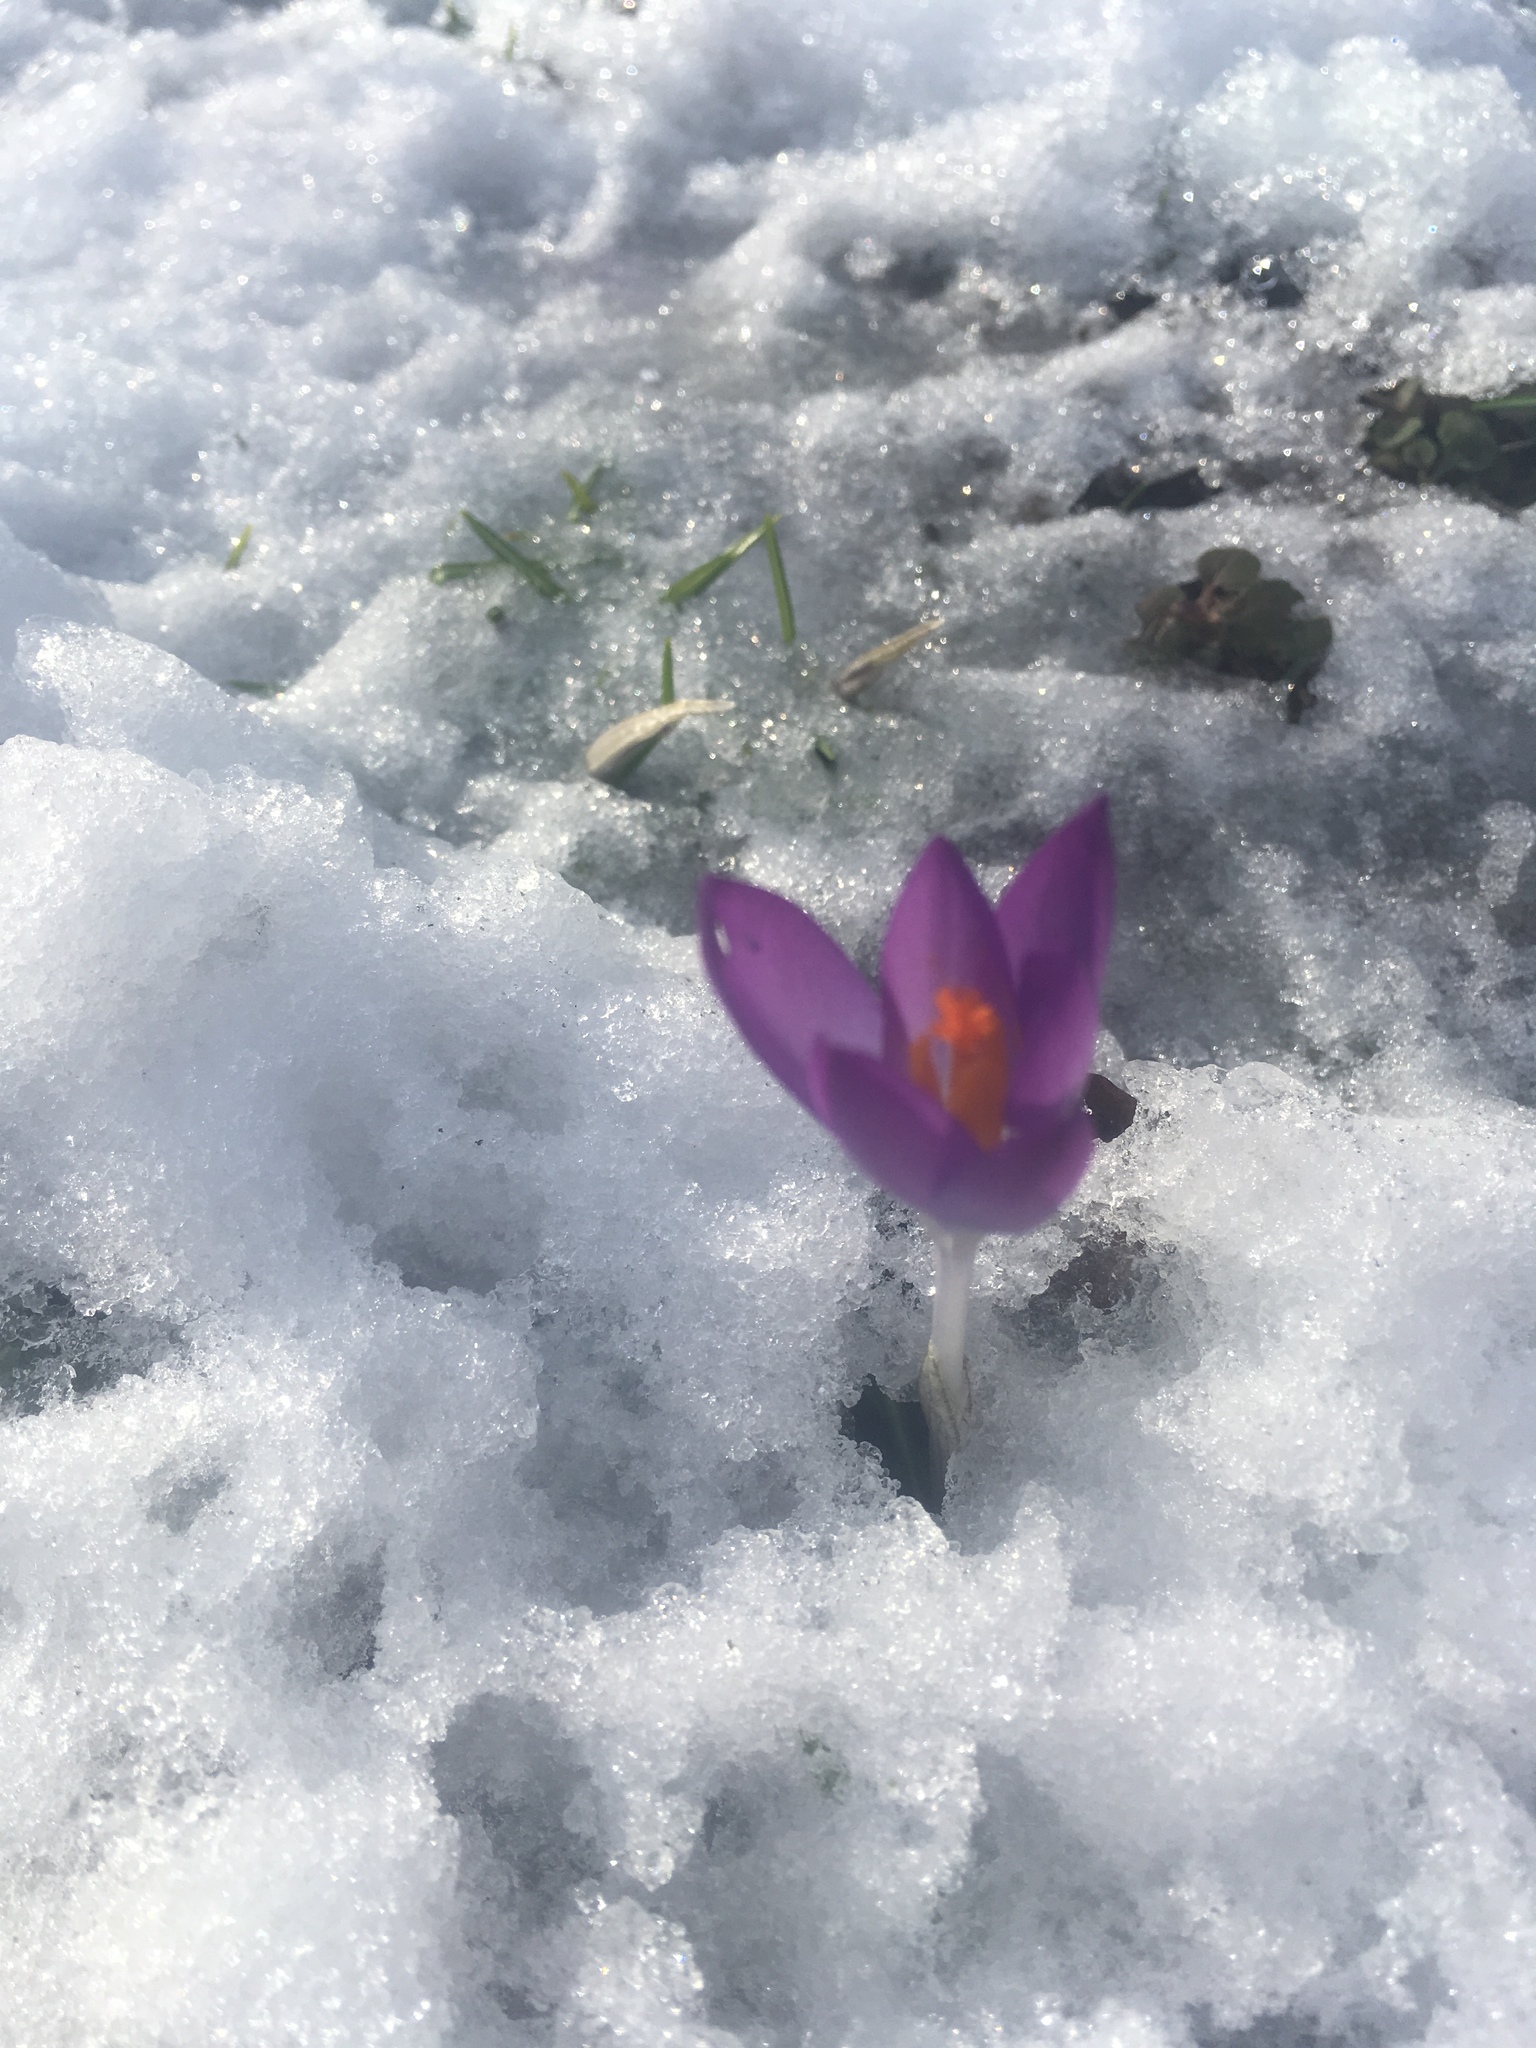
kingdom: Plantae
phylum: Tracheophyta
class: Liliopsida
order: Asparagales
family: Iridaceae
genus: Crocus
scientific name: Crocus tommasinianus
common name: Early crocus
